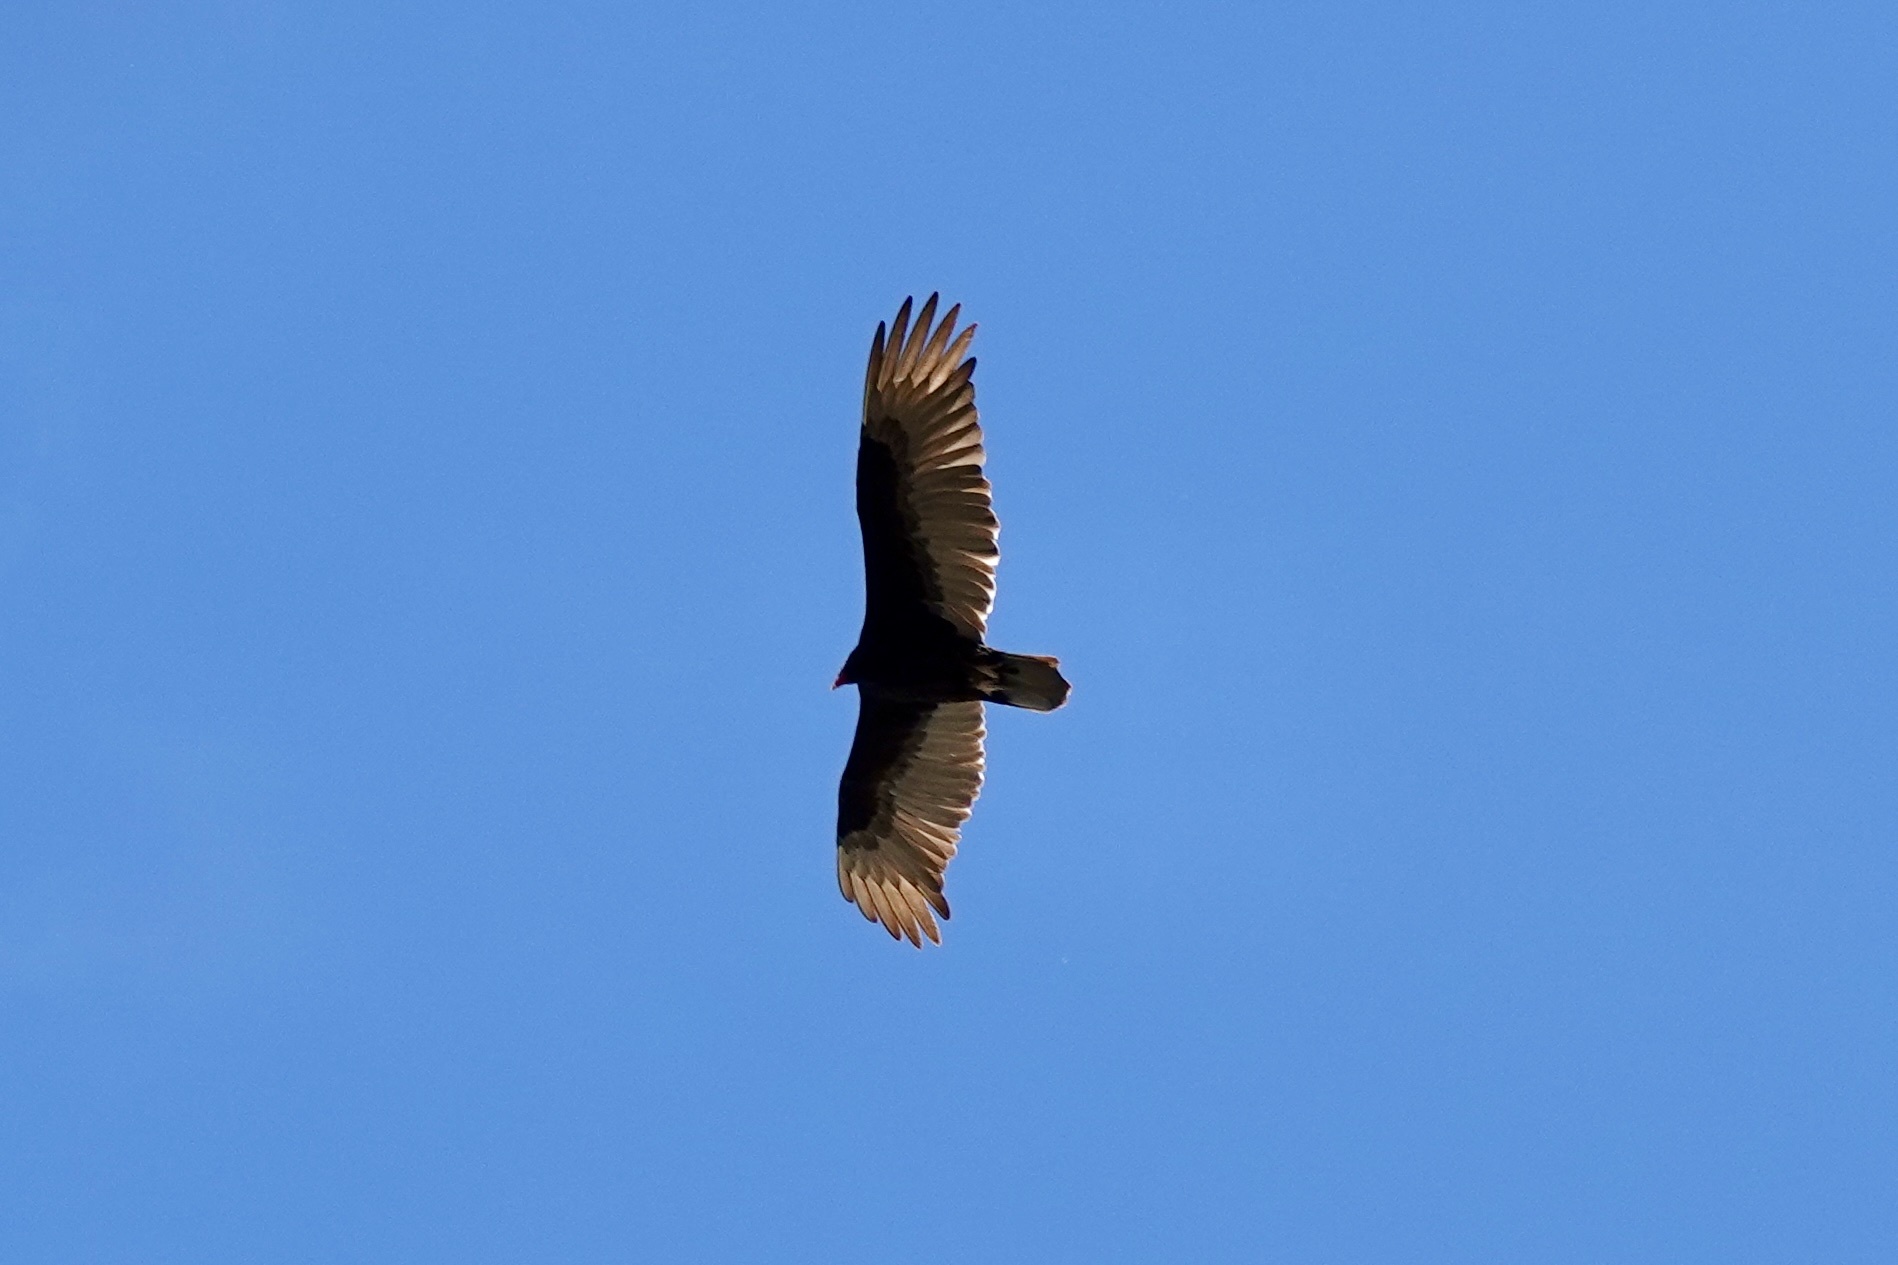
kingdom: Animalia
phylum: Chordata
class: Aves
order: Accipitriformes
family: Cathartidae
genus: Cathartes
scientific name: Cathartes aura
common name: Turkey vulture
